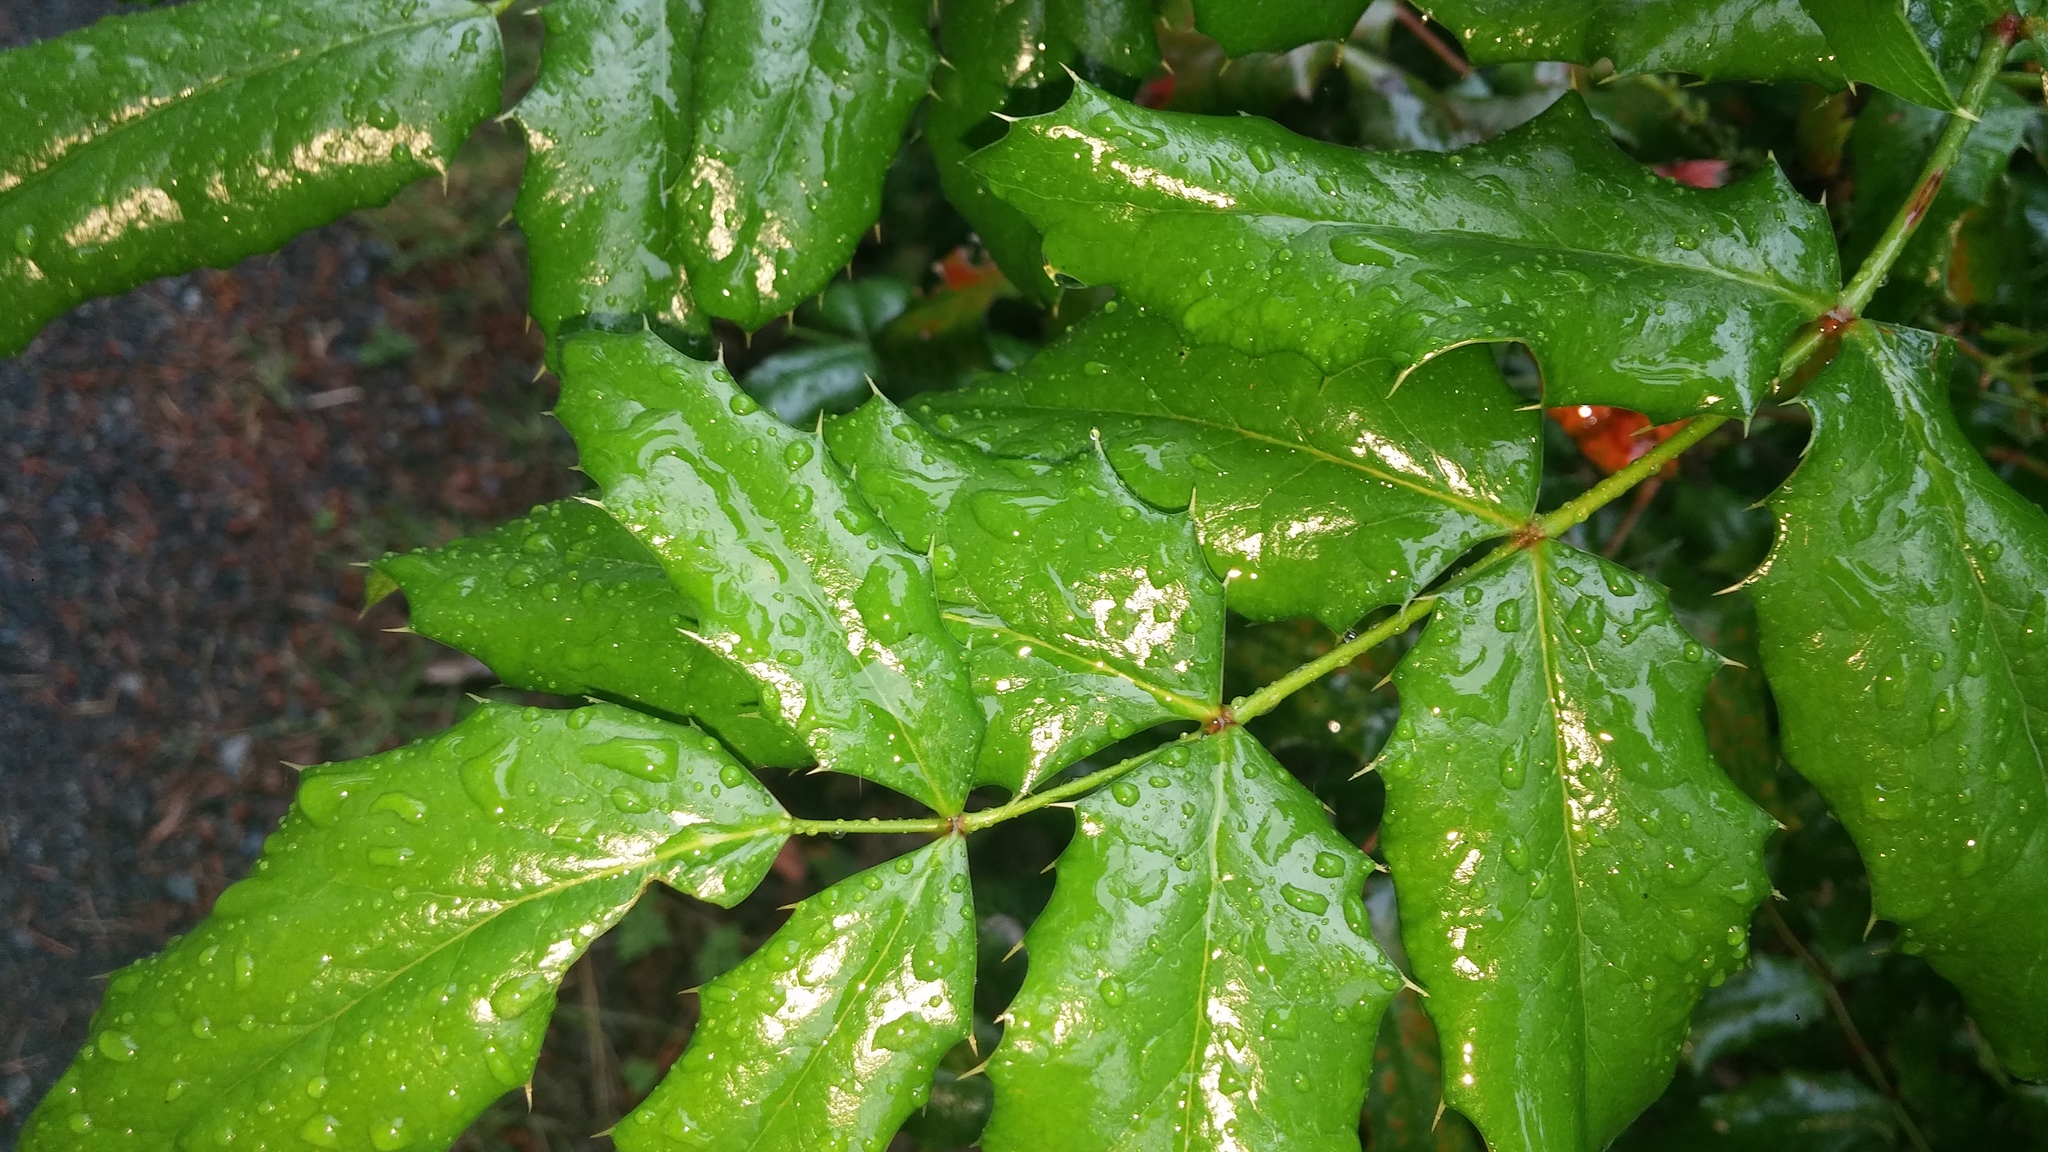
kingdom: Plantae
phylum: Tracheophyta
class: Magnoliopsida
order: Ranunculales
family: Berberidaceae
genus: Mahonia
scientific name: Mahonia aquifolium
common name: Oregon-grape
